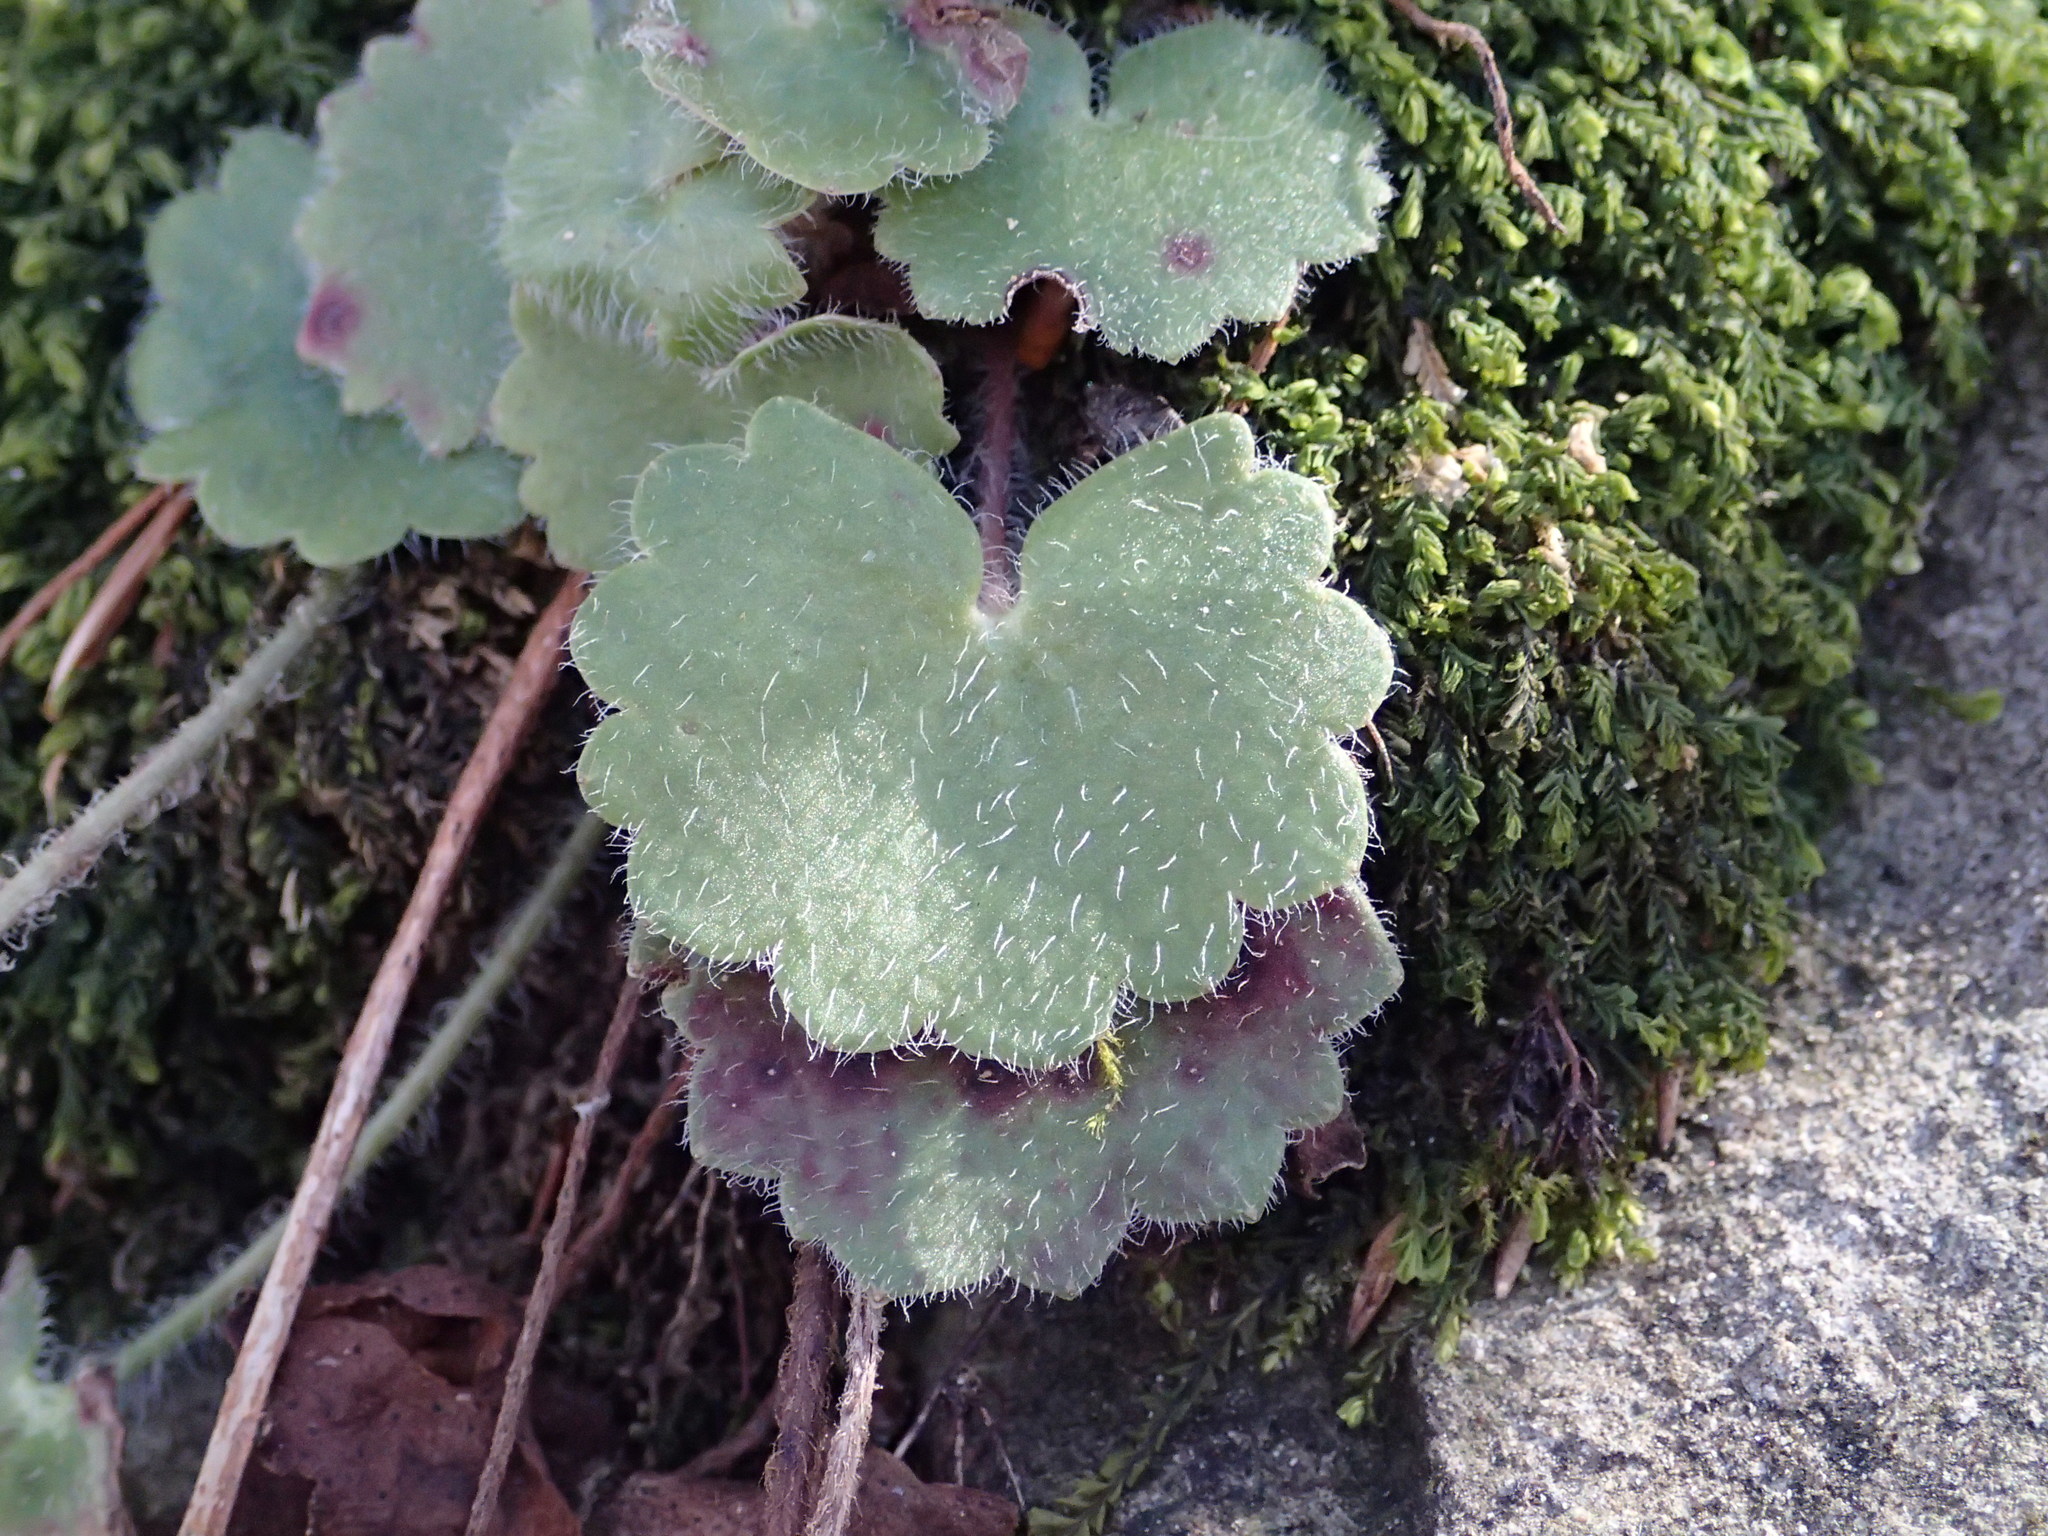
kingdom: Plantae
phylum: Tracheophyta
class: Magnoliopsida
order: Saxifragales
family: Saxifragaceae
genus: Saxifraga
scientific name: Saxifraga rotundifolia
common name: Round-leaved saxifrage
